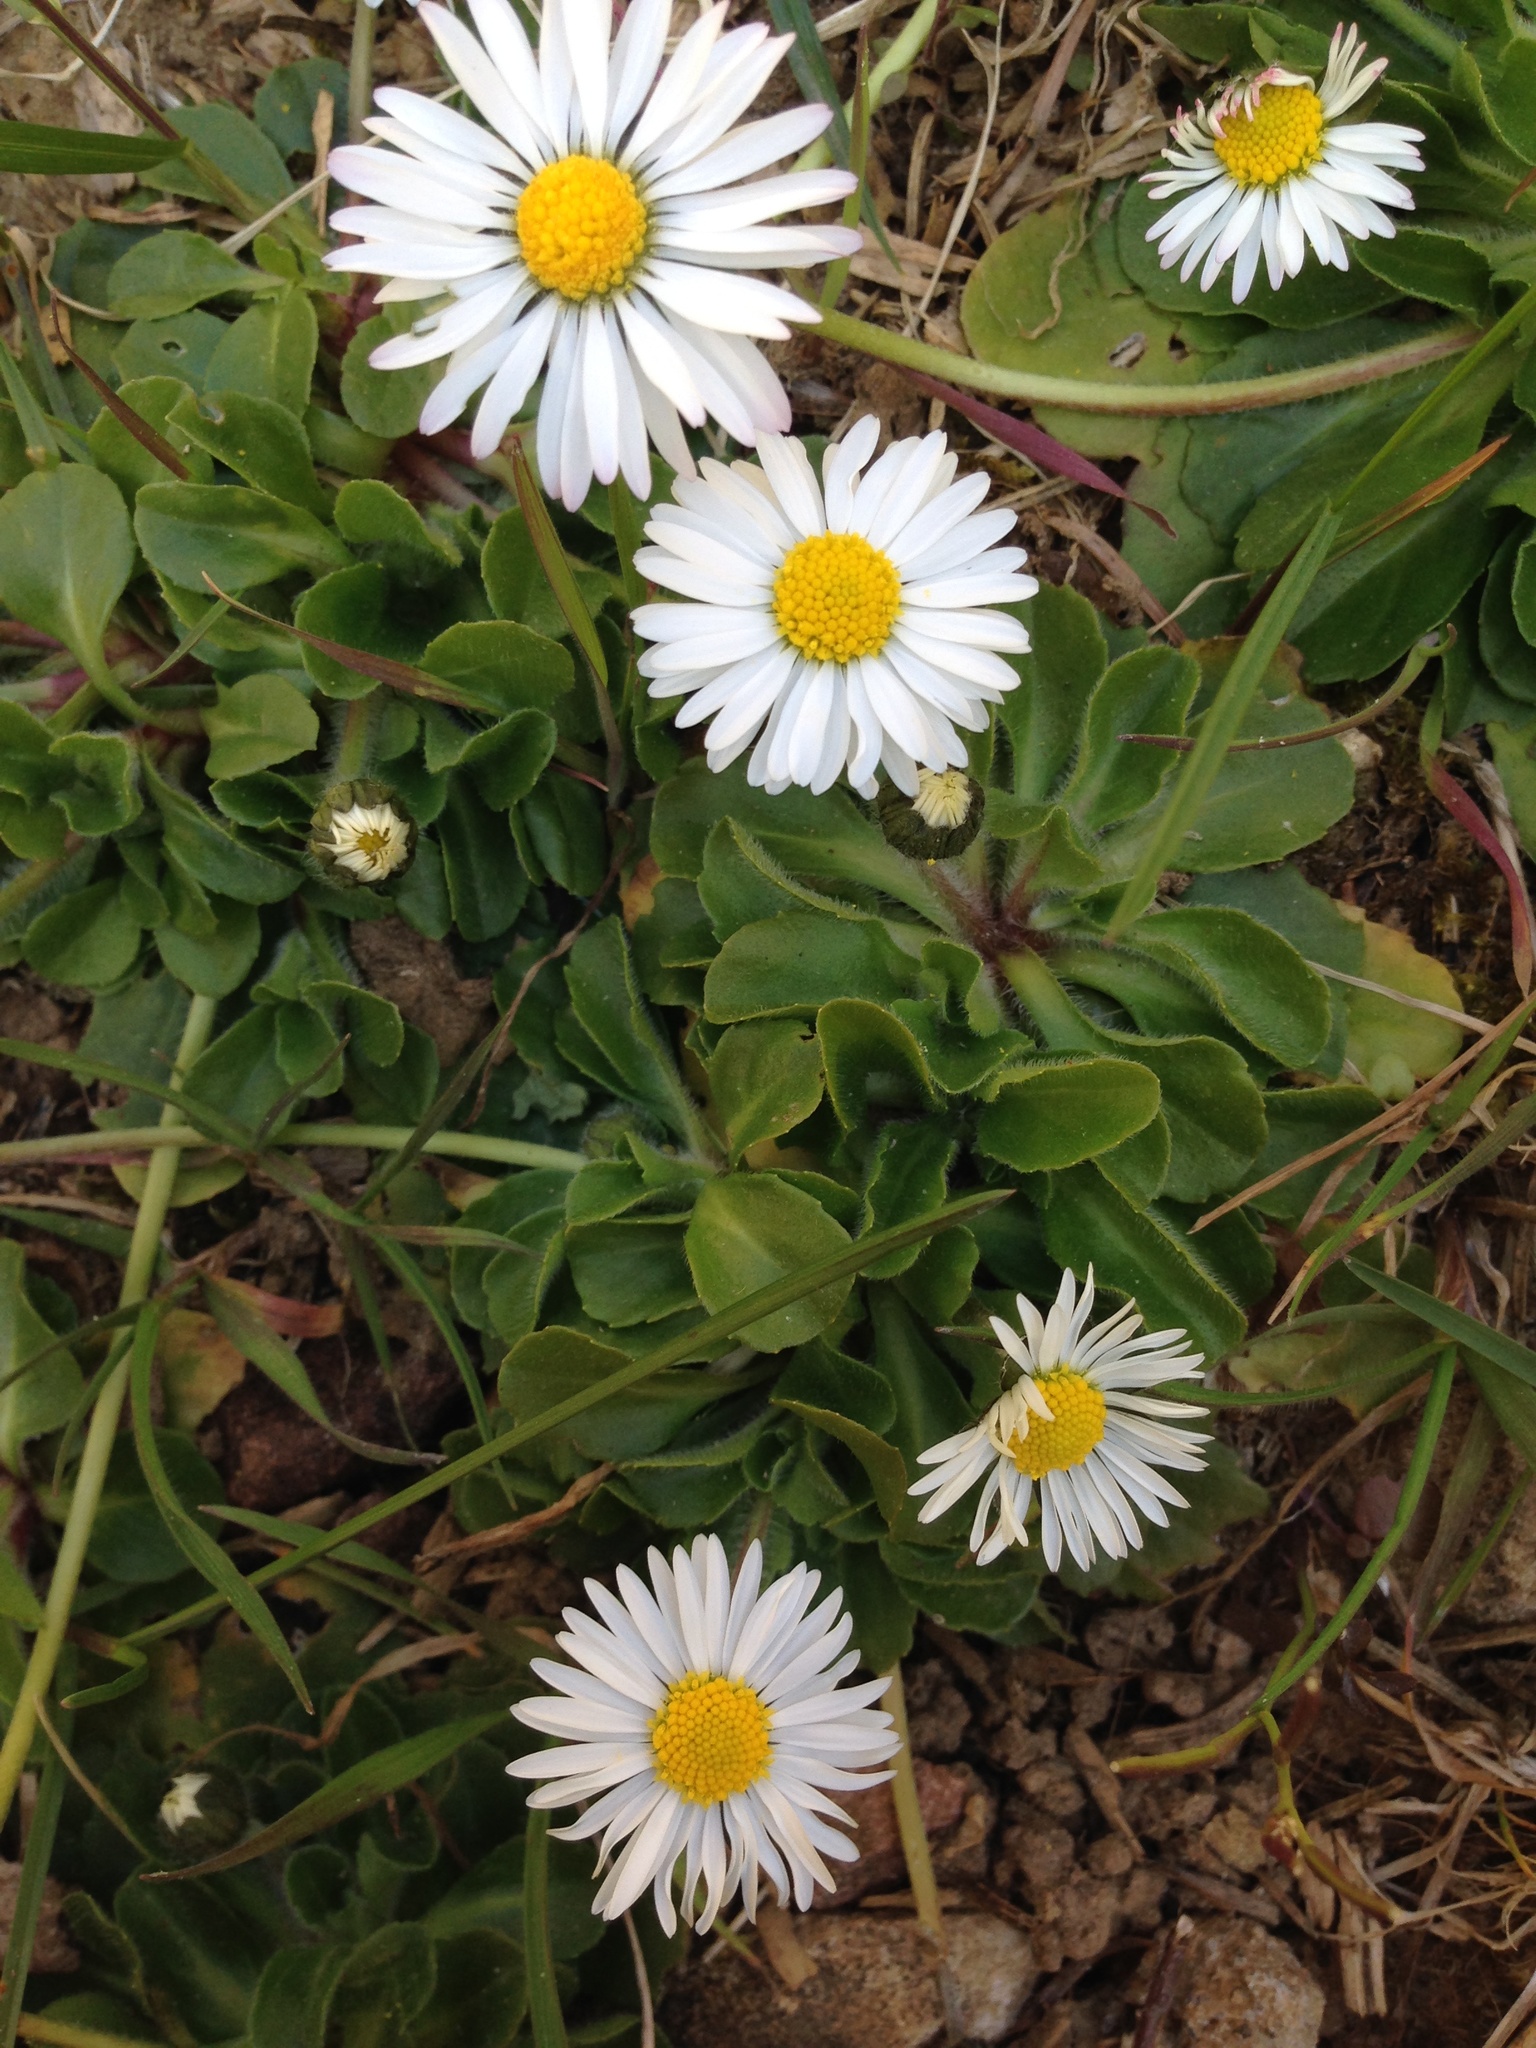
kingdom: Plantae
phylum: Tracheophyta
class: Magnoliopsida
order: Asterales
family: Asteraceae
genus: Bellis
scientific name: Bellis perennis
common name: Lawndaisy
